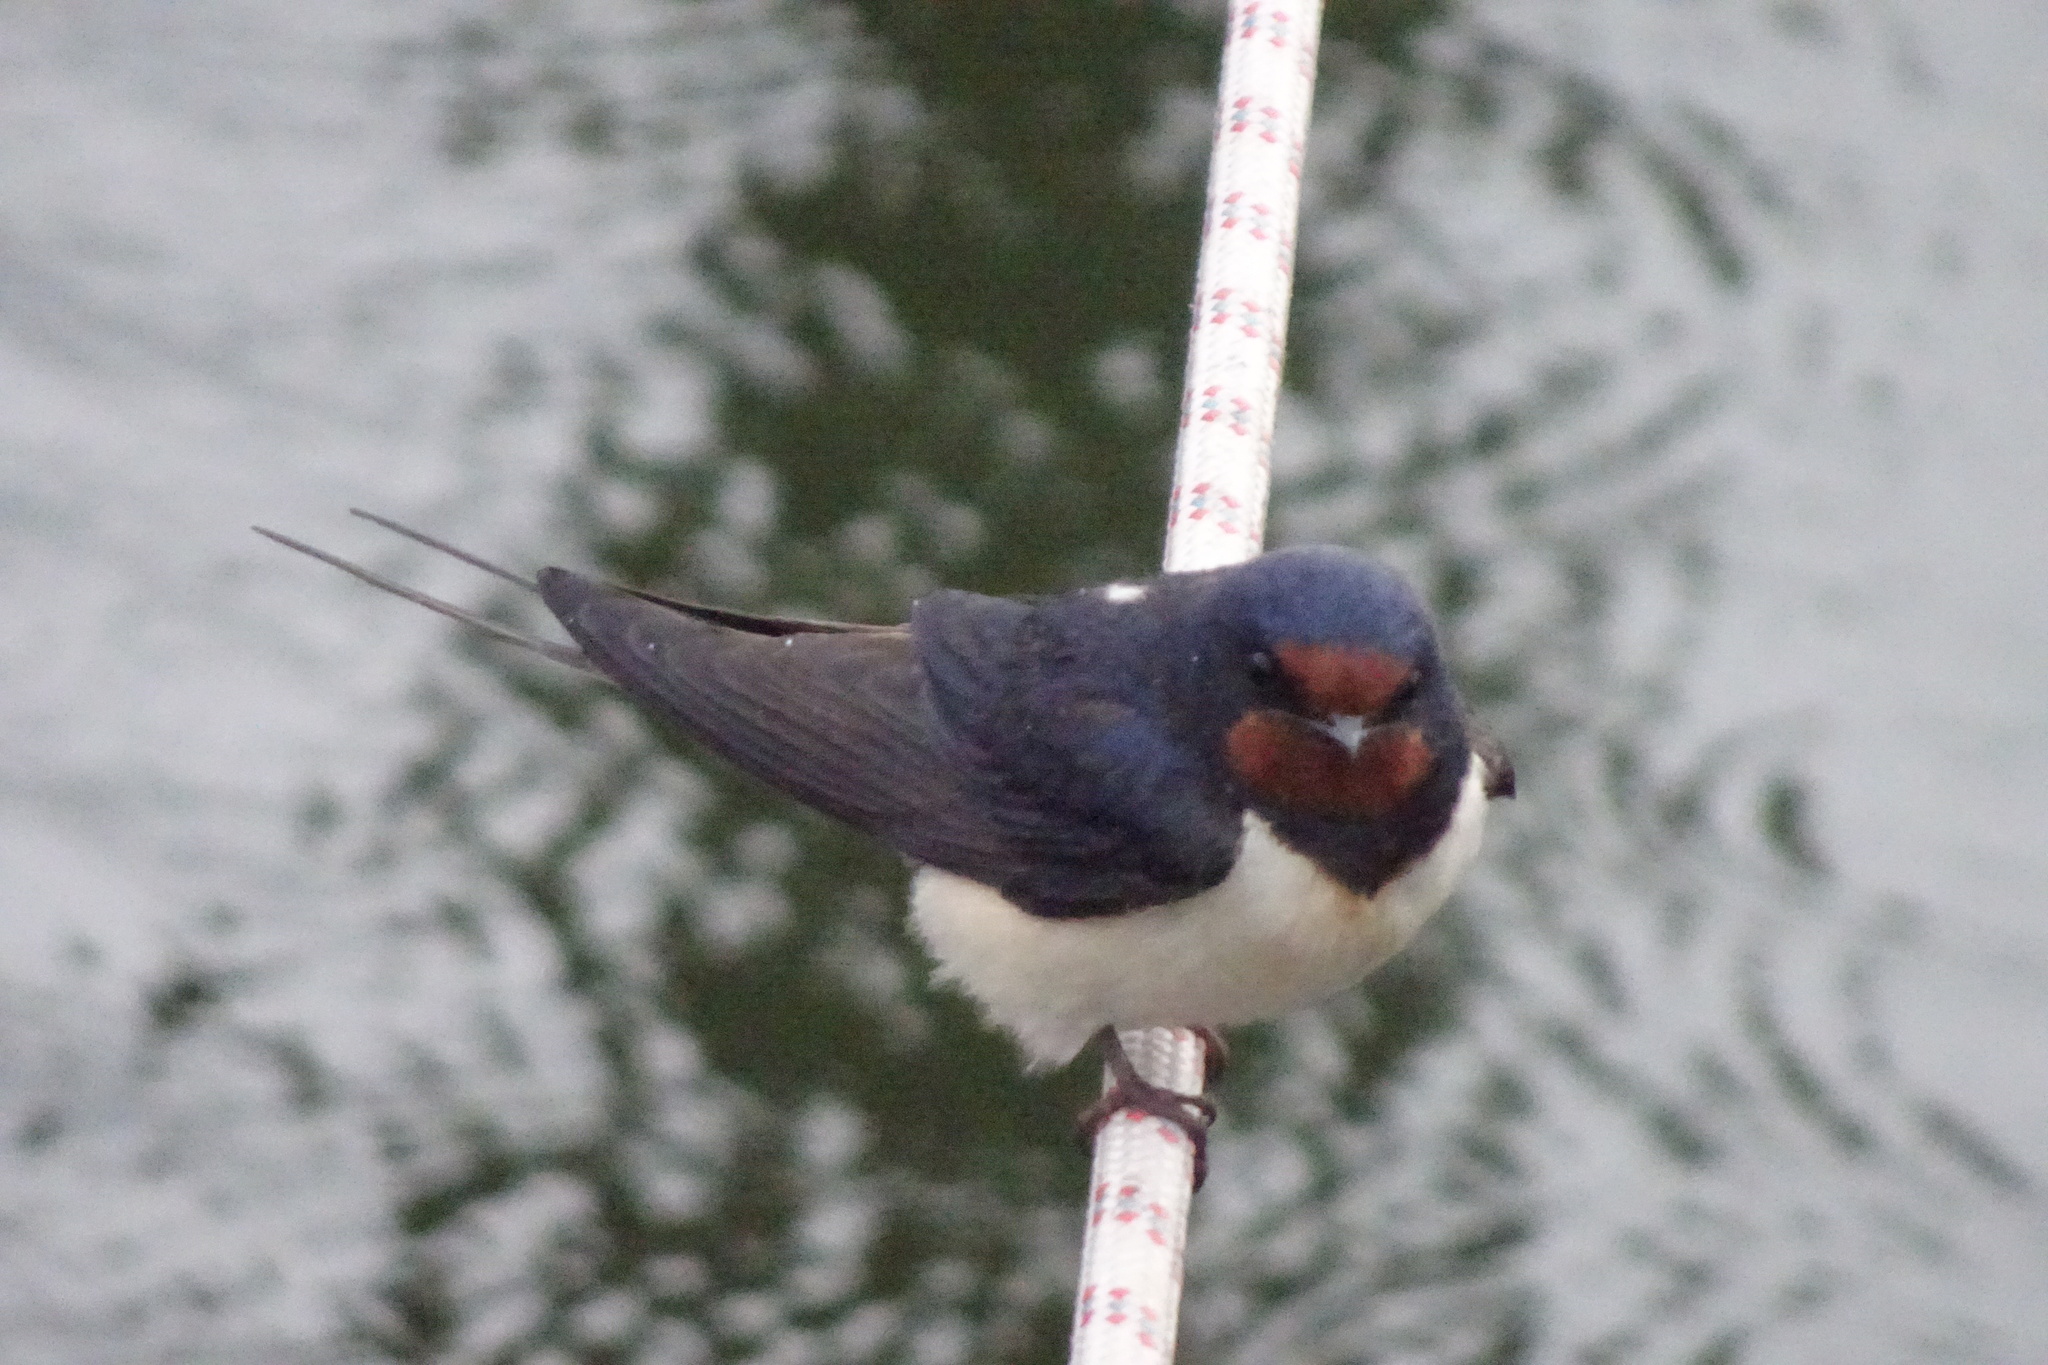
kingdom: Animalia
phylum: Chordata
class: Aves
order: Passeriformes
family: Hirundinidae
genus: Hirundo
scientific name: Hirundo rustica
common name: Barn swallow
